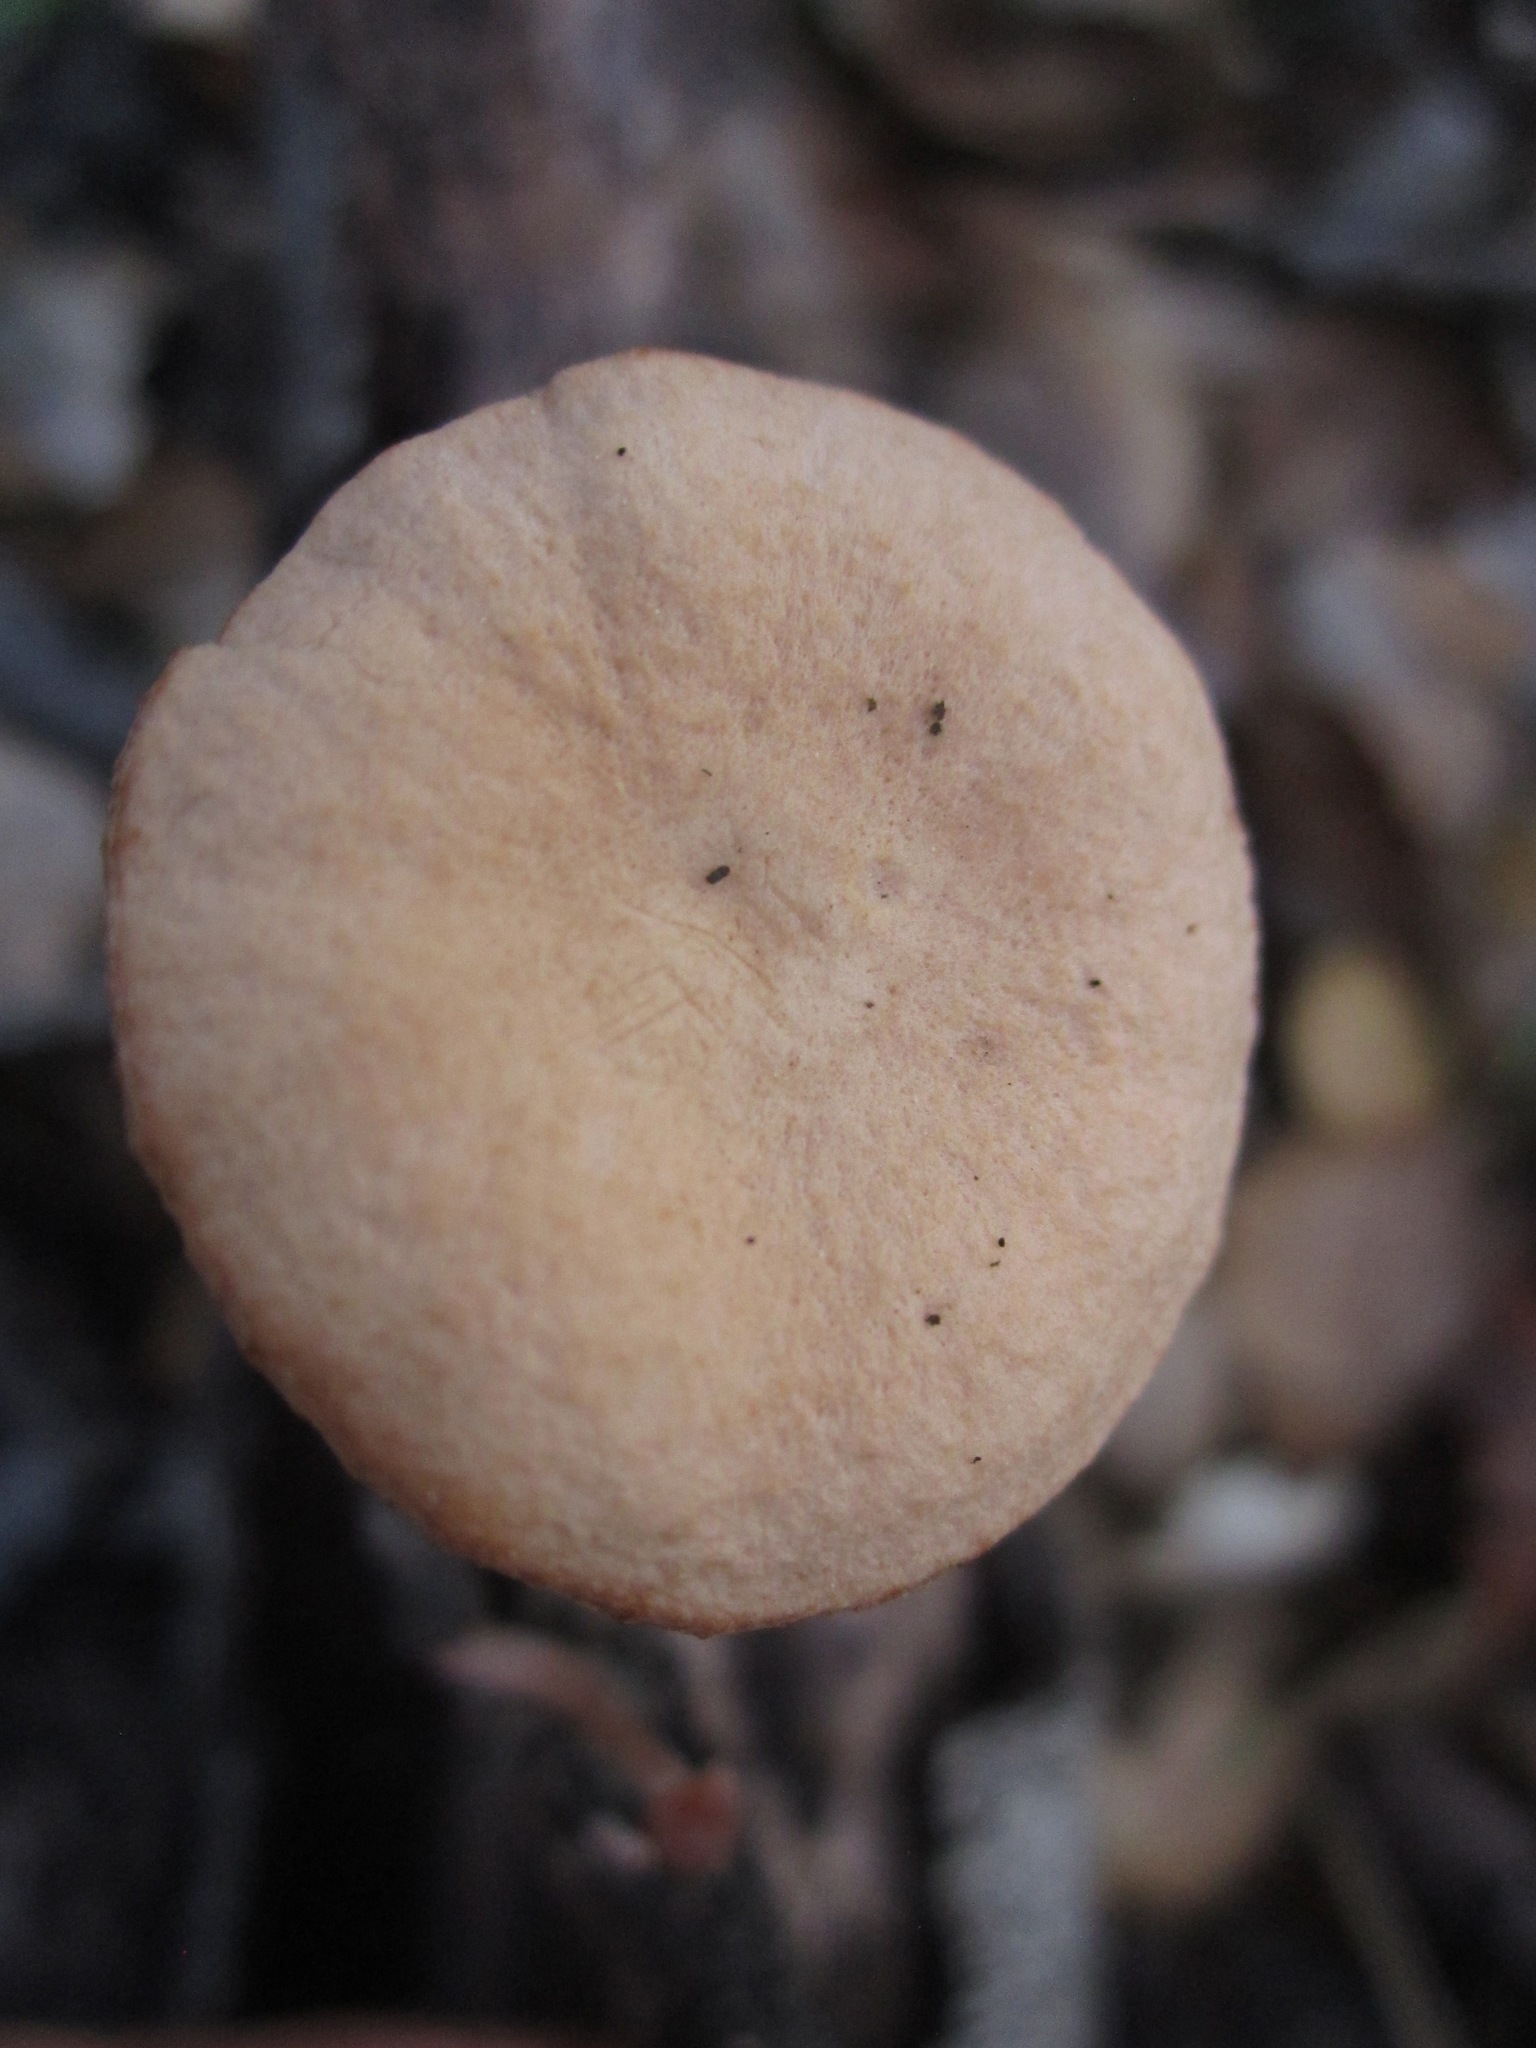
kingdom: Fungi
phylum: Basidiomycota
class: Agaricomycetes
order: Agaricales
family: Tubariaceae
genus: Tubaria
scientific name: Tubaria furfuracea
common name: Scurfy twiglet
